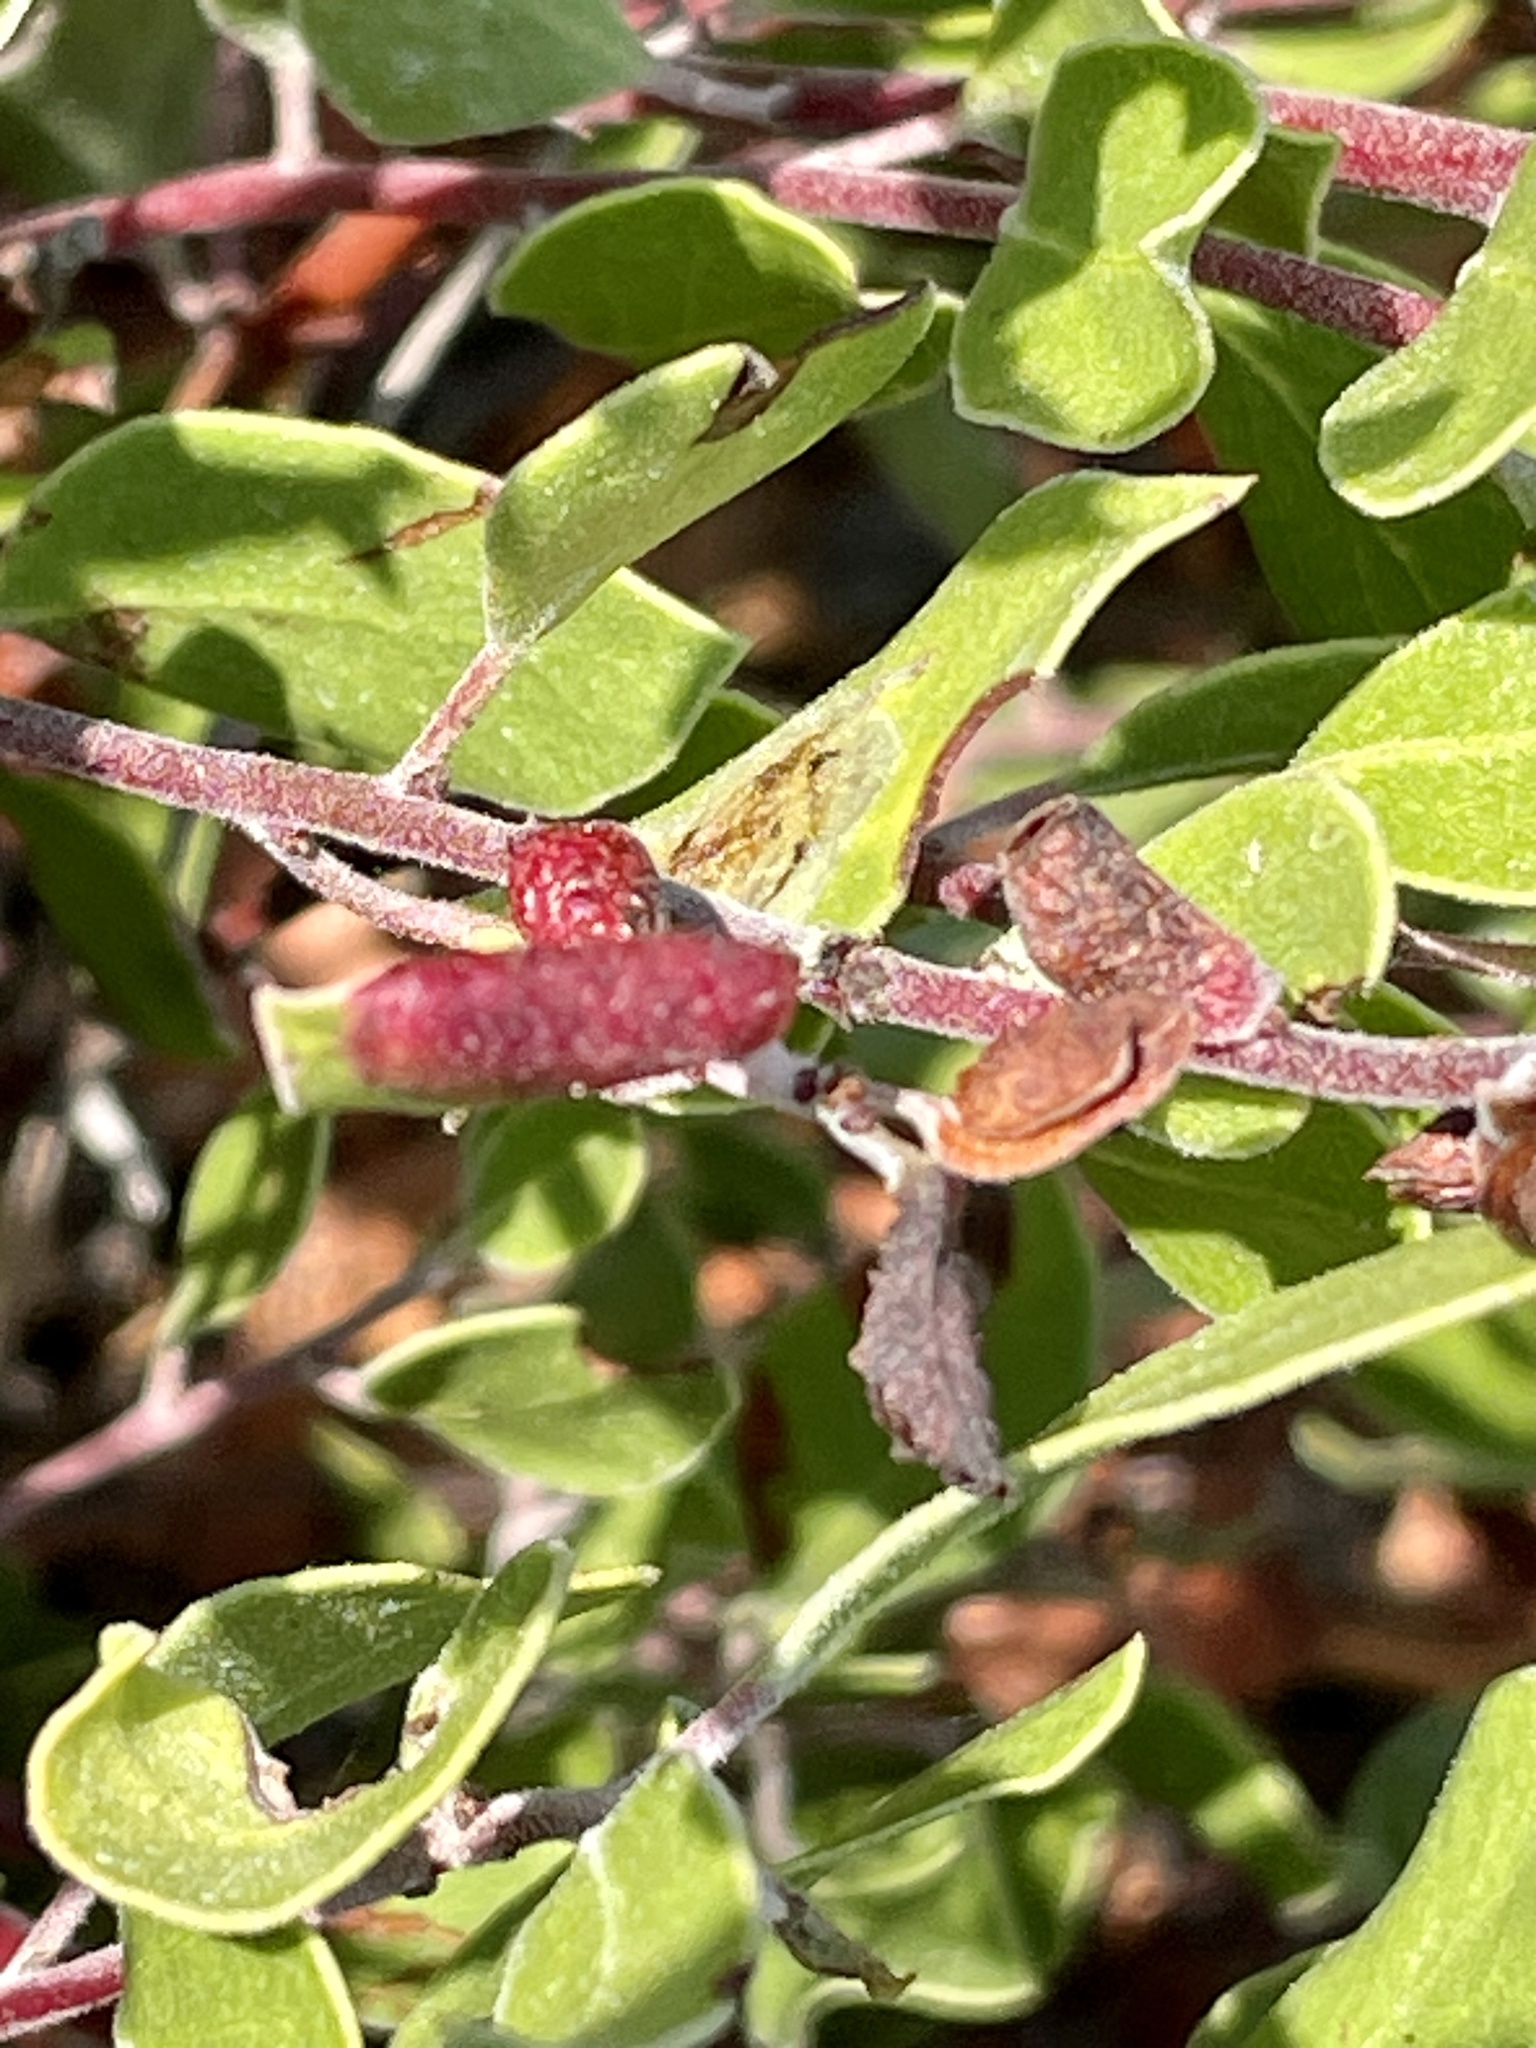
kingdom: Animalia
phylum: Arthropoda
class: Insecta
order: Hemiptera
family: Aphididae
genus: Tamalia
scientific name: Tamalia coweni
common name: Manzanita leafgall aphid
